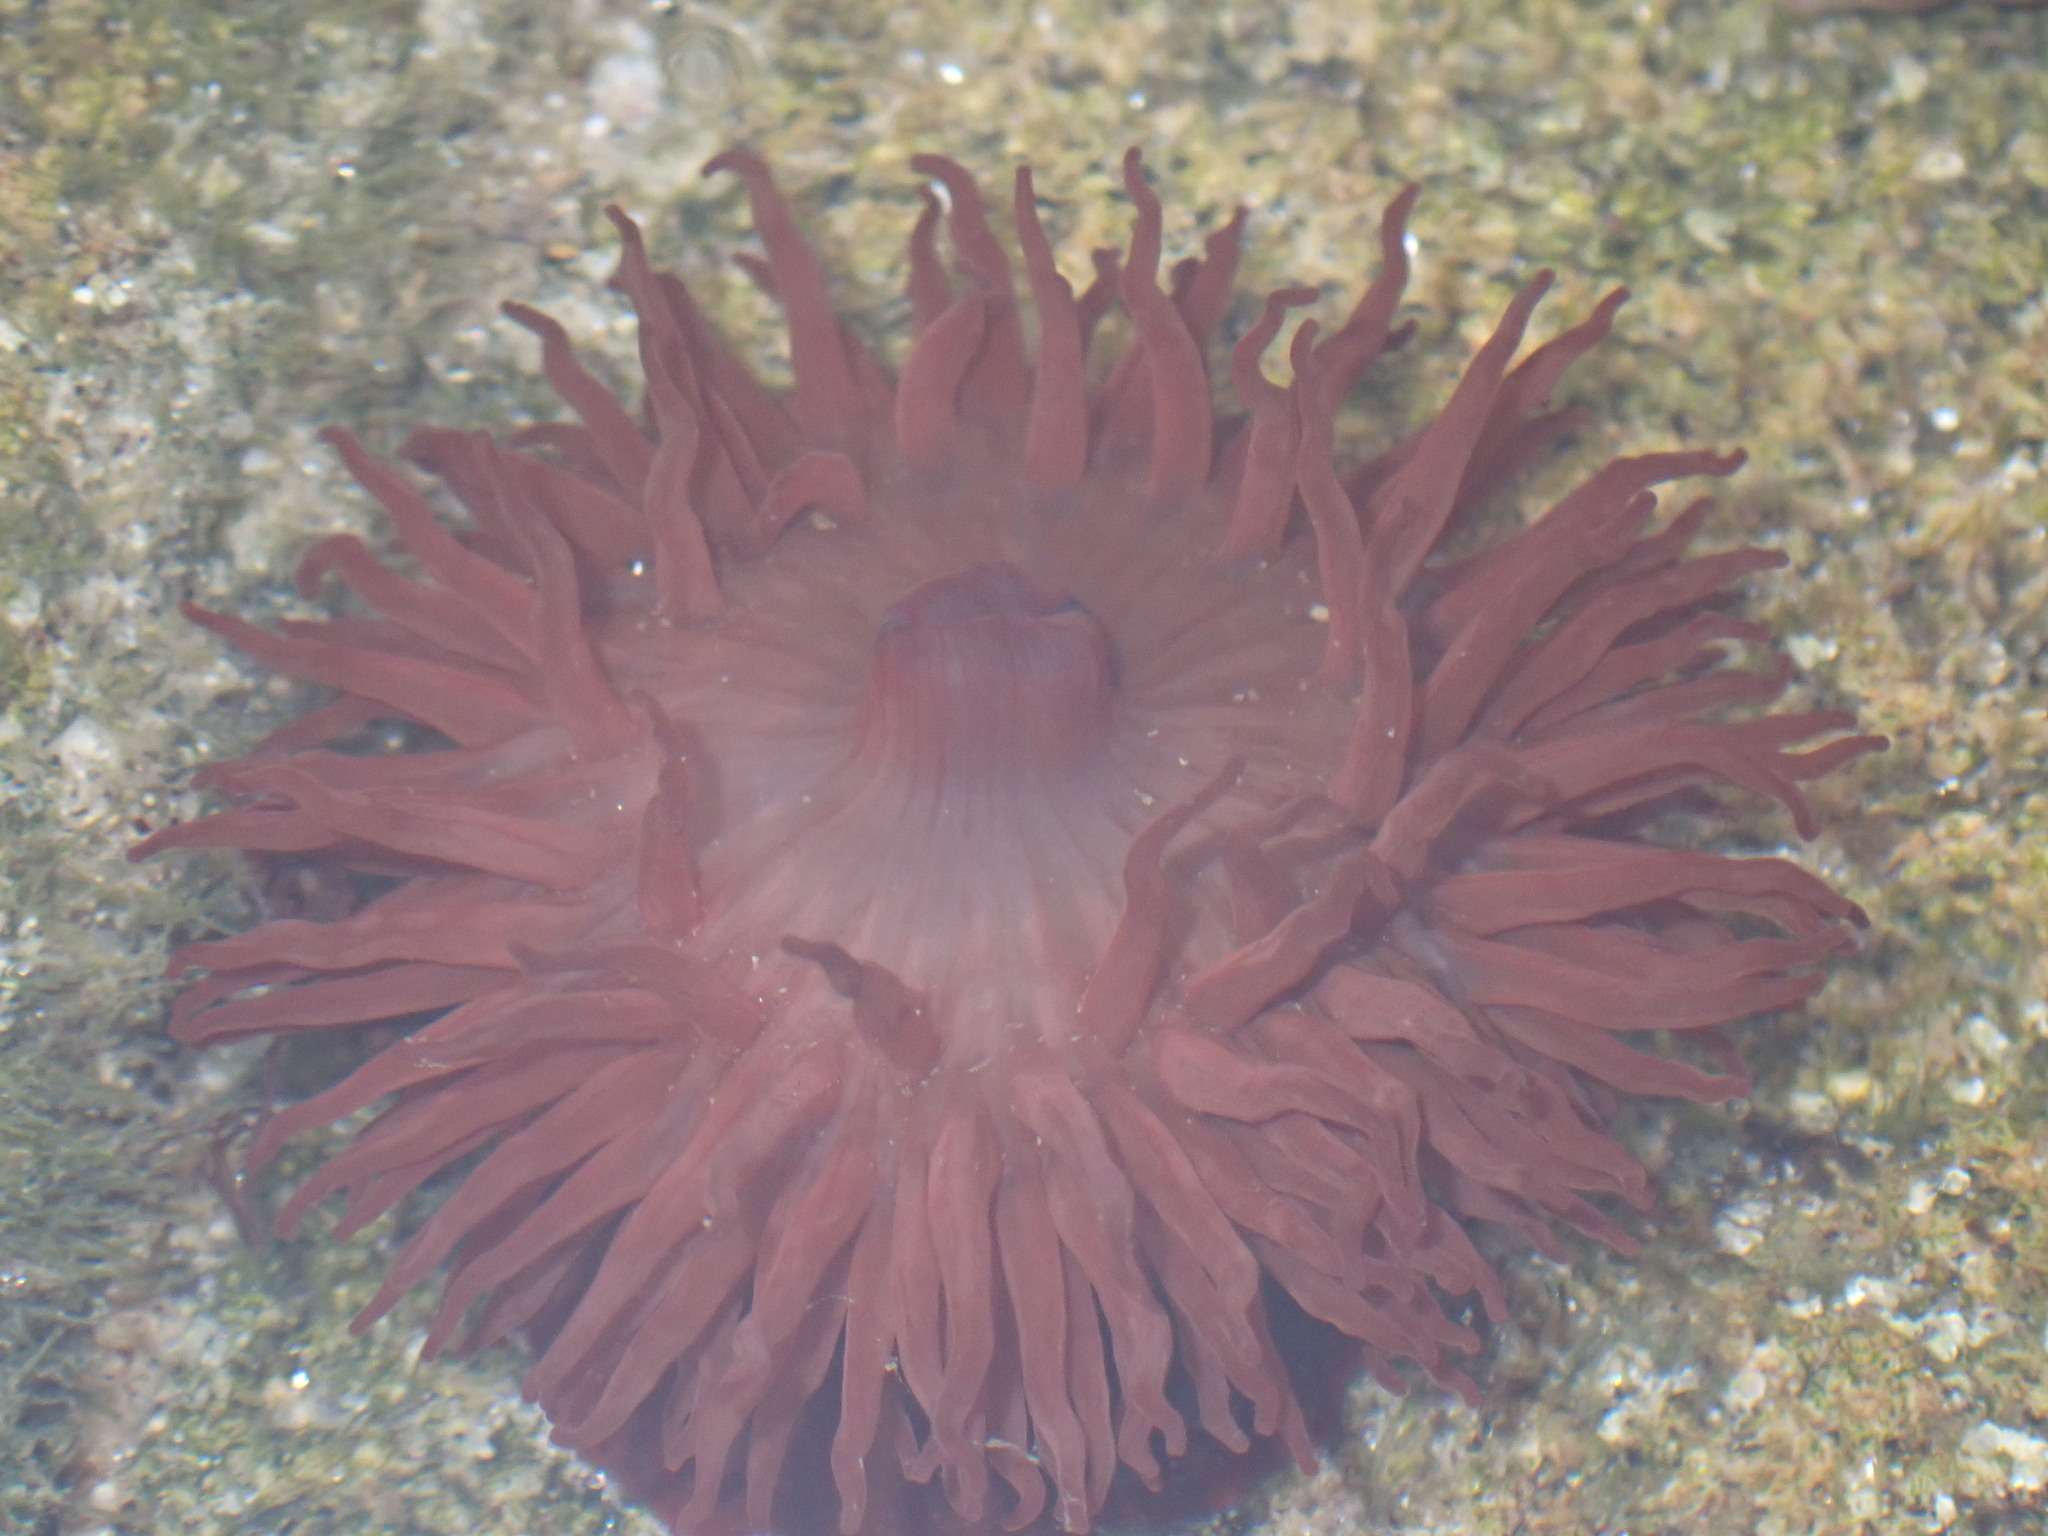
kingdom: Animalia
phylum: Cnidaria
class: Anthozoa
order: Actiniaria
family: Actiniidae
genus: Actinia
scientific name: Actinia equina
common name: Beadlet anemone
